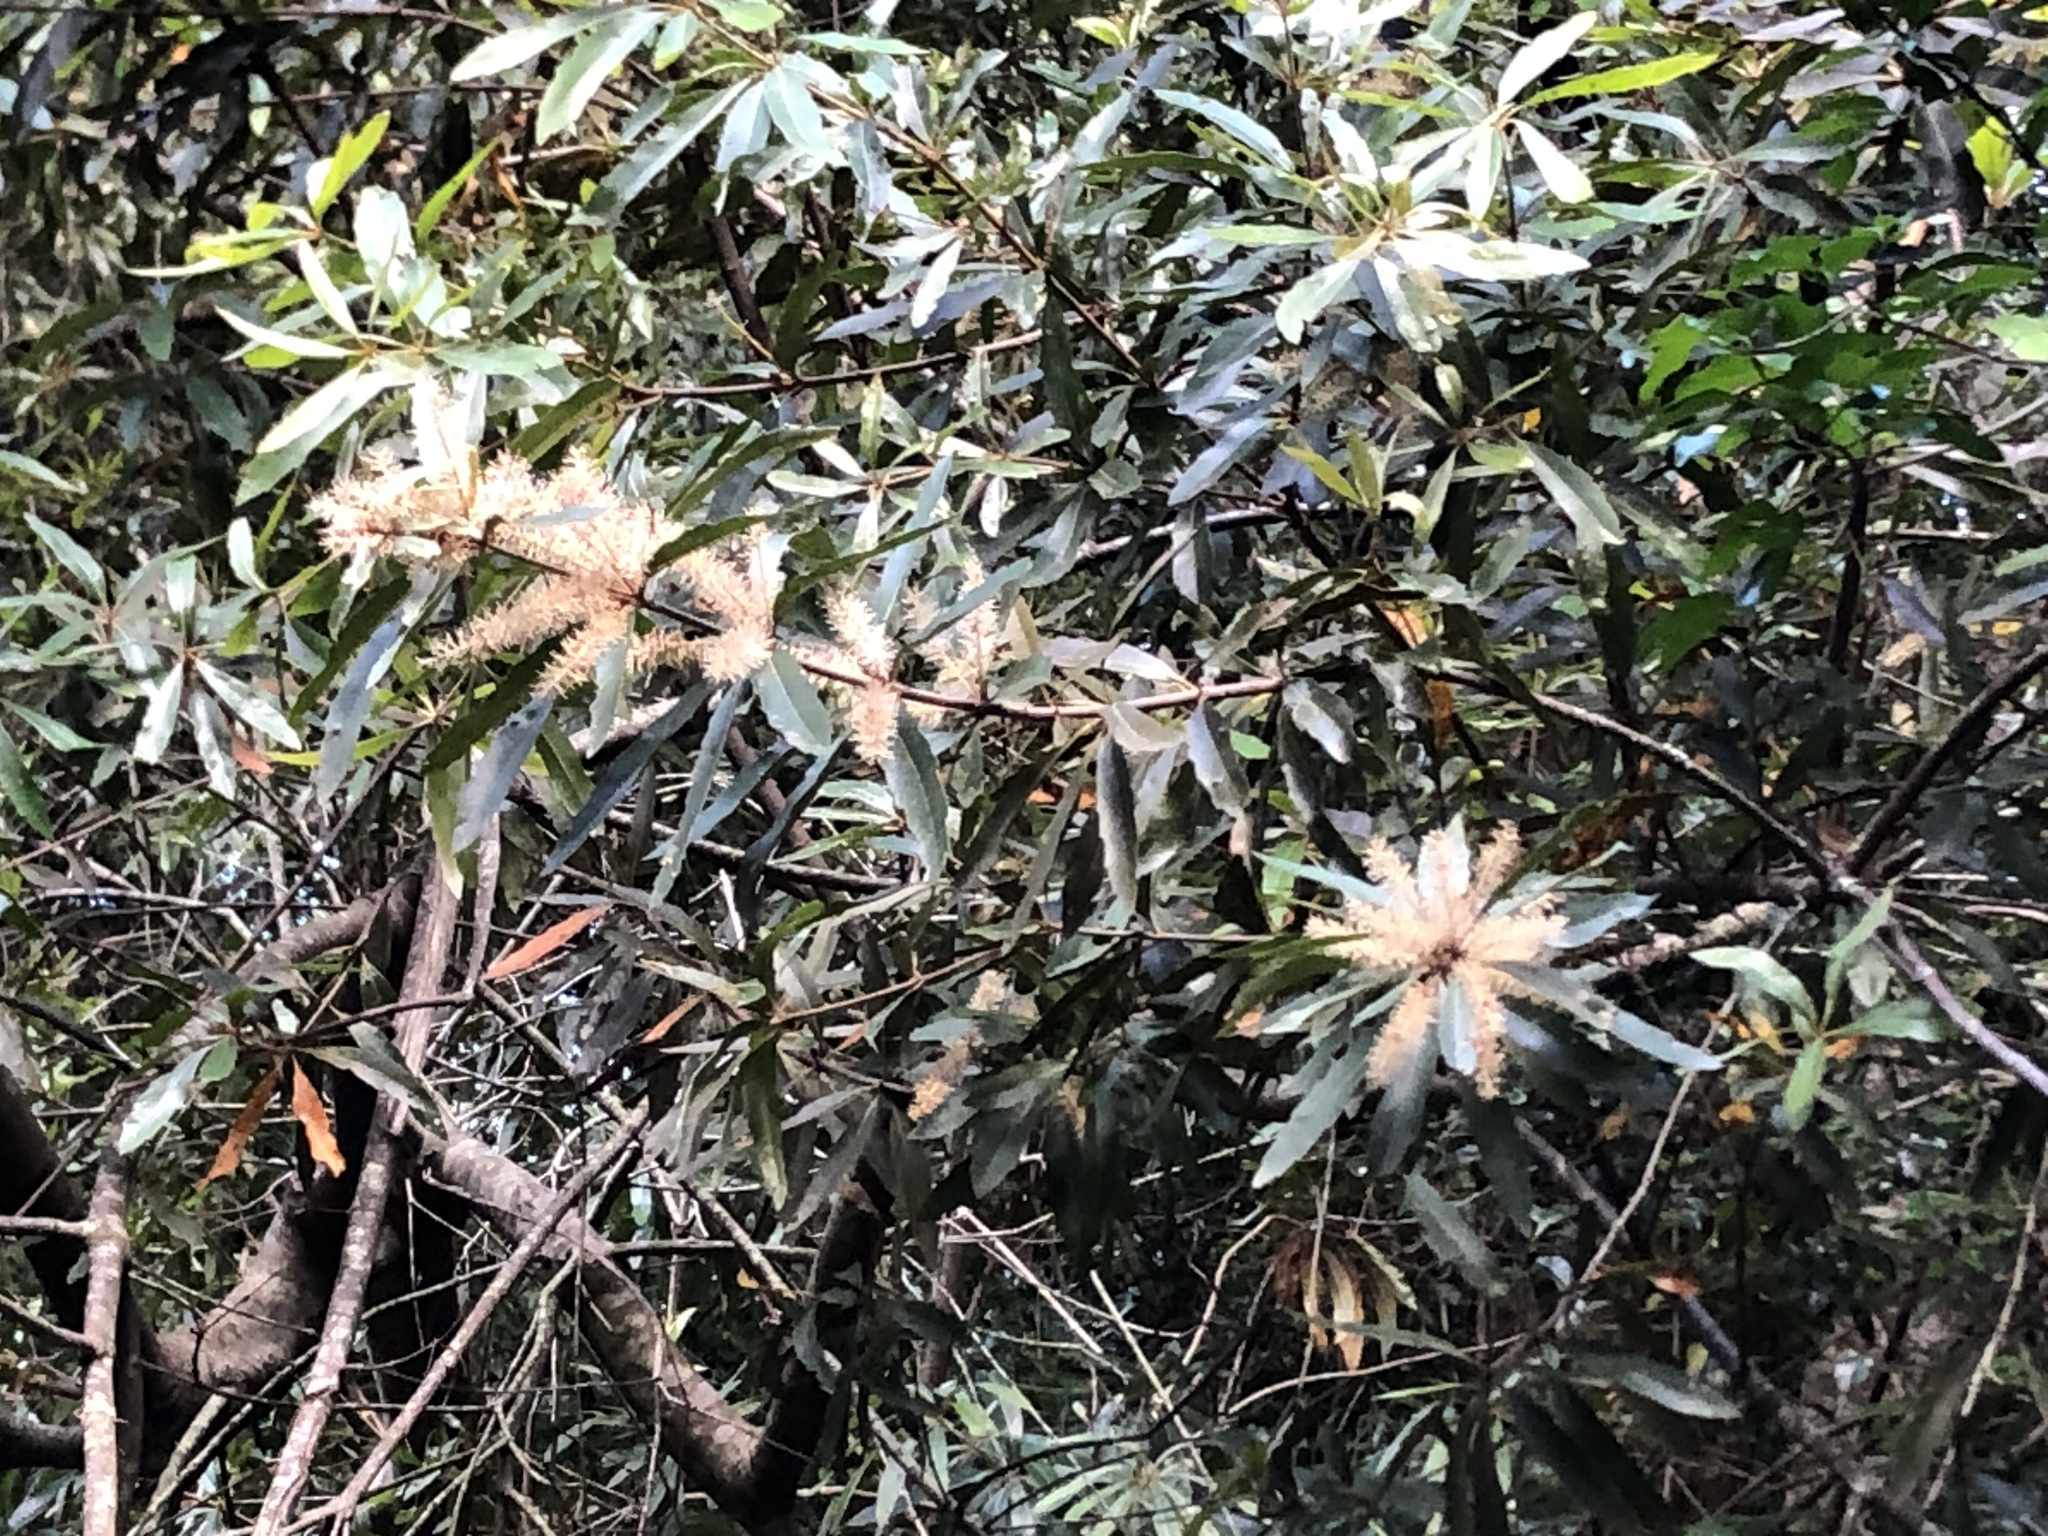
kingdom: Plantae
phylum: Tracheophyta
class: Magnoliopsida
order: Proteales
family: Proteaceae
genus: Brabejum
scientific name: Brabejum stellatifolium
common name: Wild almond
